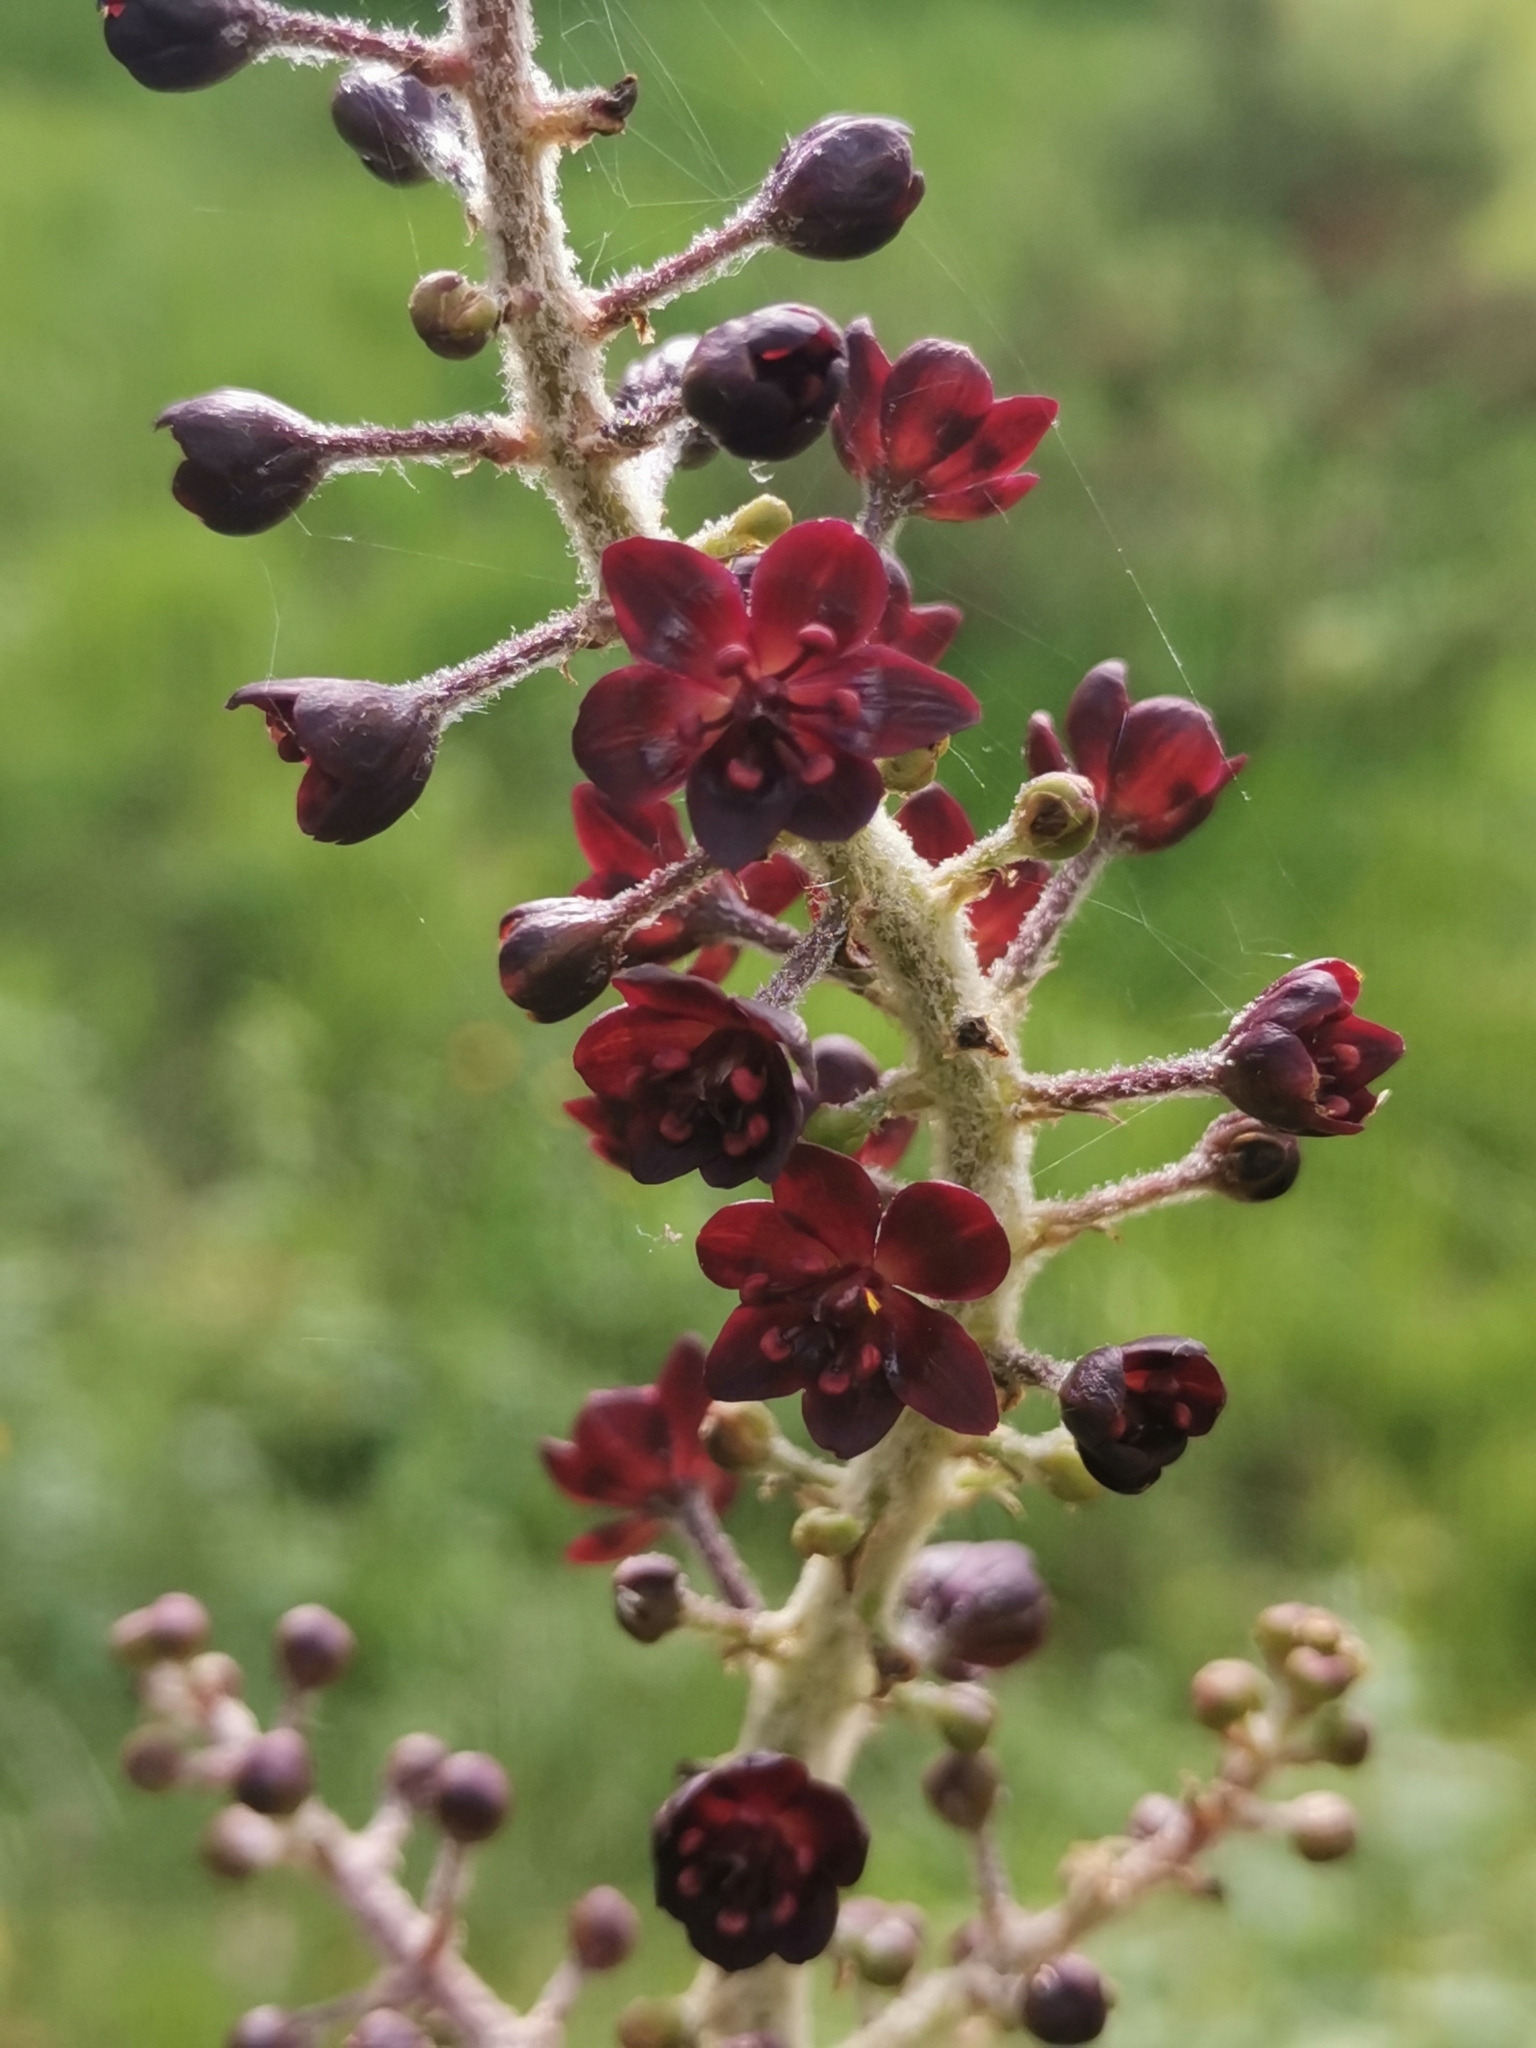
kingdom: Plantae
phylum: Tracheophyta
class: Liliopsida
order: Liliales
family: Melanthiaceae
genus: Veratrum
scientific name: Veratrum nigrum
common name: Black veratrum
